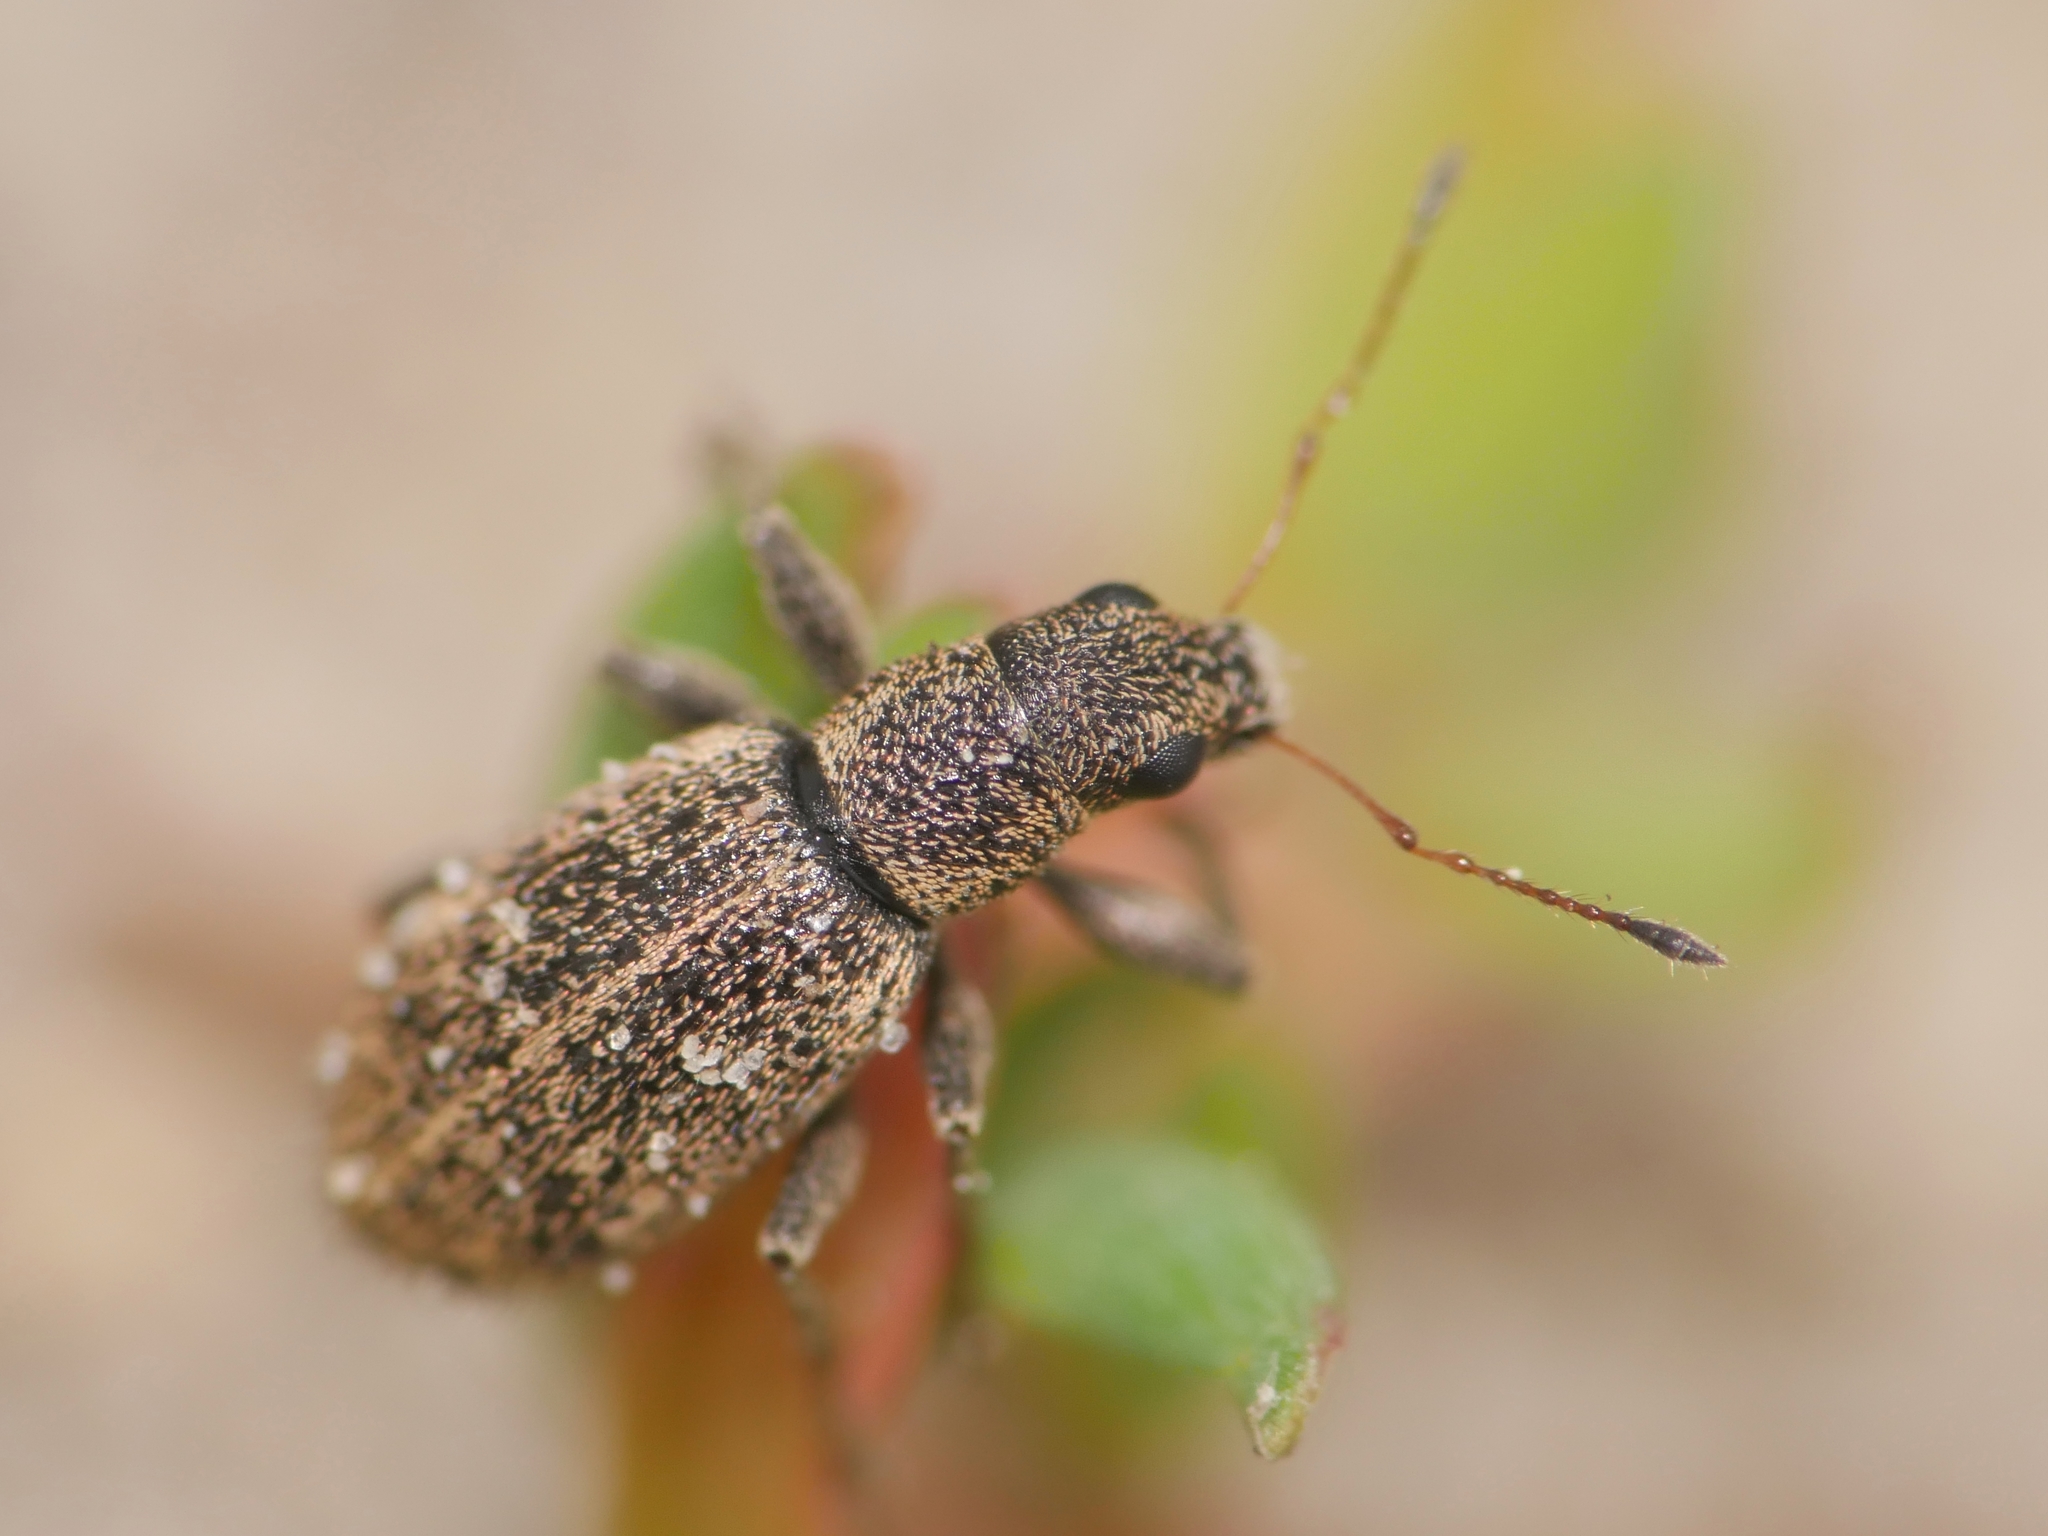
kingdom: Animalia
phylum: Arthropoda
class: Insecta
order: Coleoptera
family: Curculionidae
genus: Polydrusus
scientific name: Polydrusus inustus
